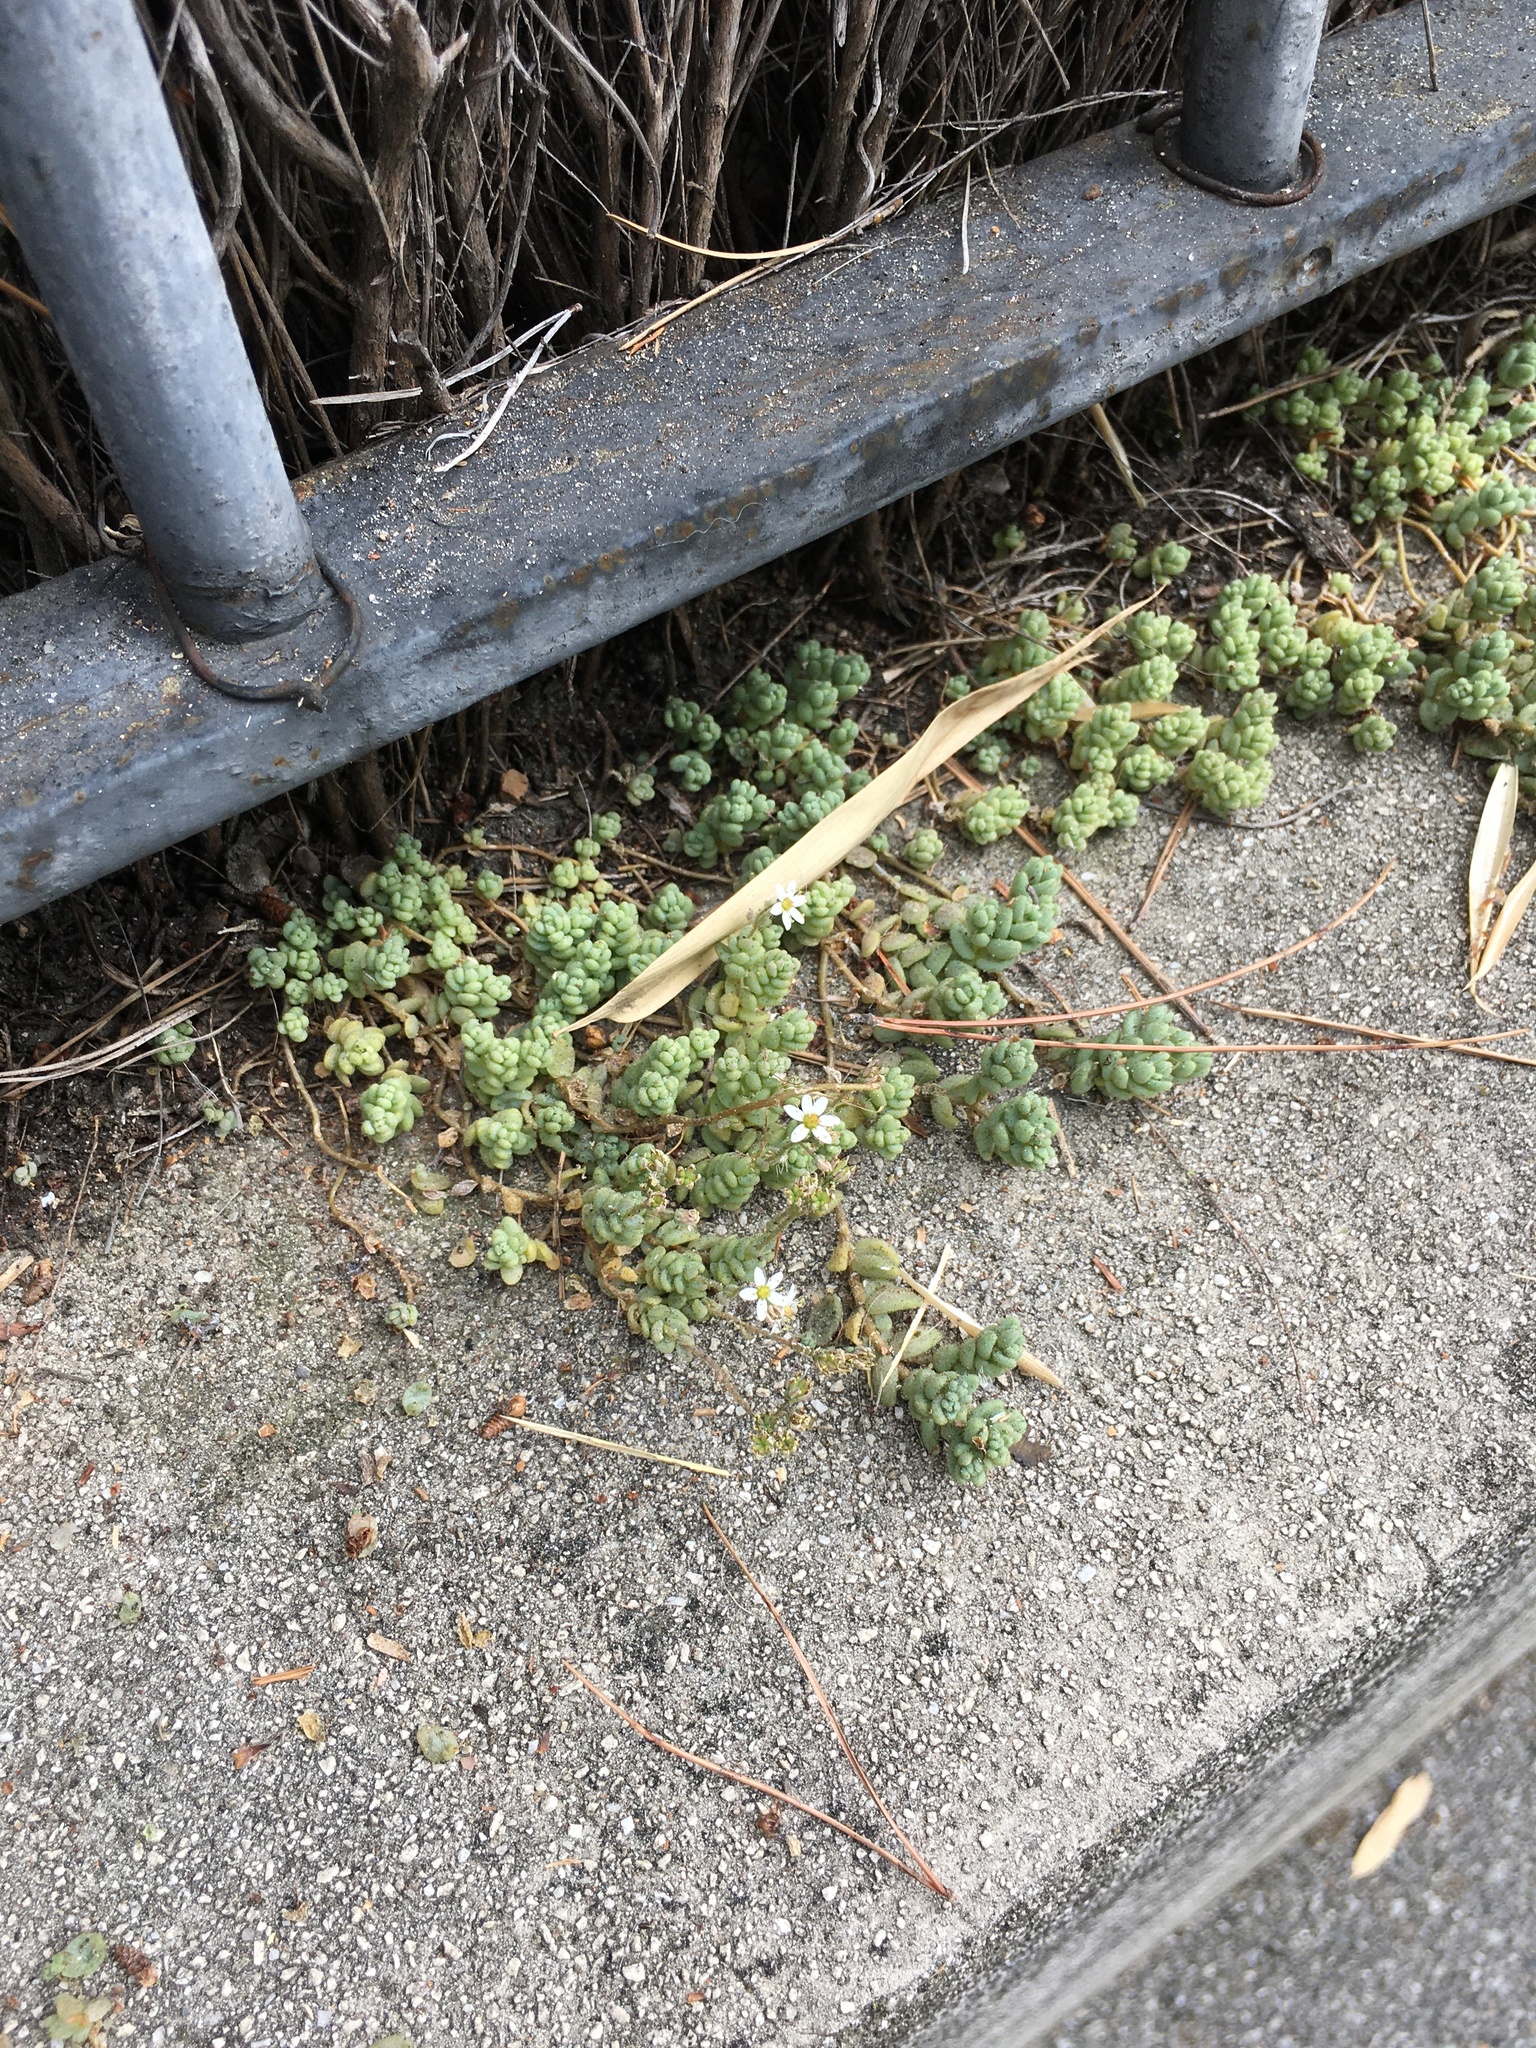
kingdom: Plantae
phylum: Tracheophyta
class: Magnoliopsida
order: Saxifragales
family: Crassulaceae
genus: Sedum
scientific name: Sedum dasyphyllum
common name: Thick-leaf stonecrop
